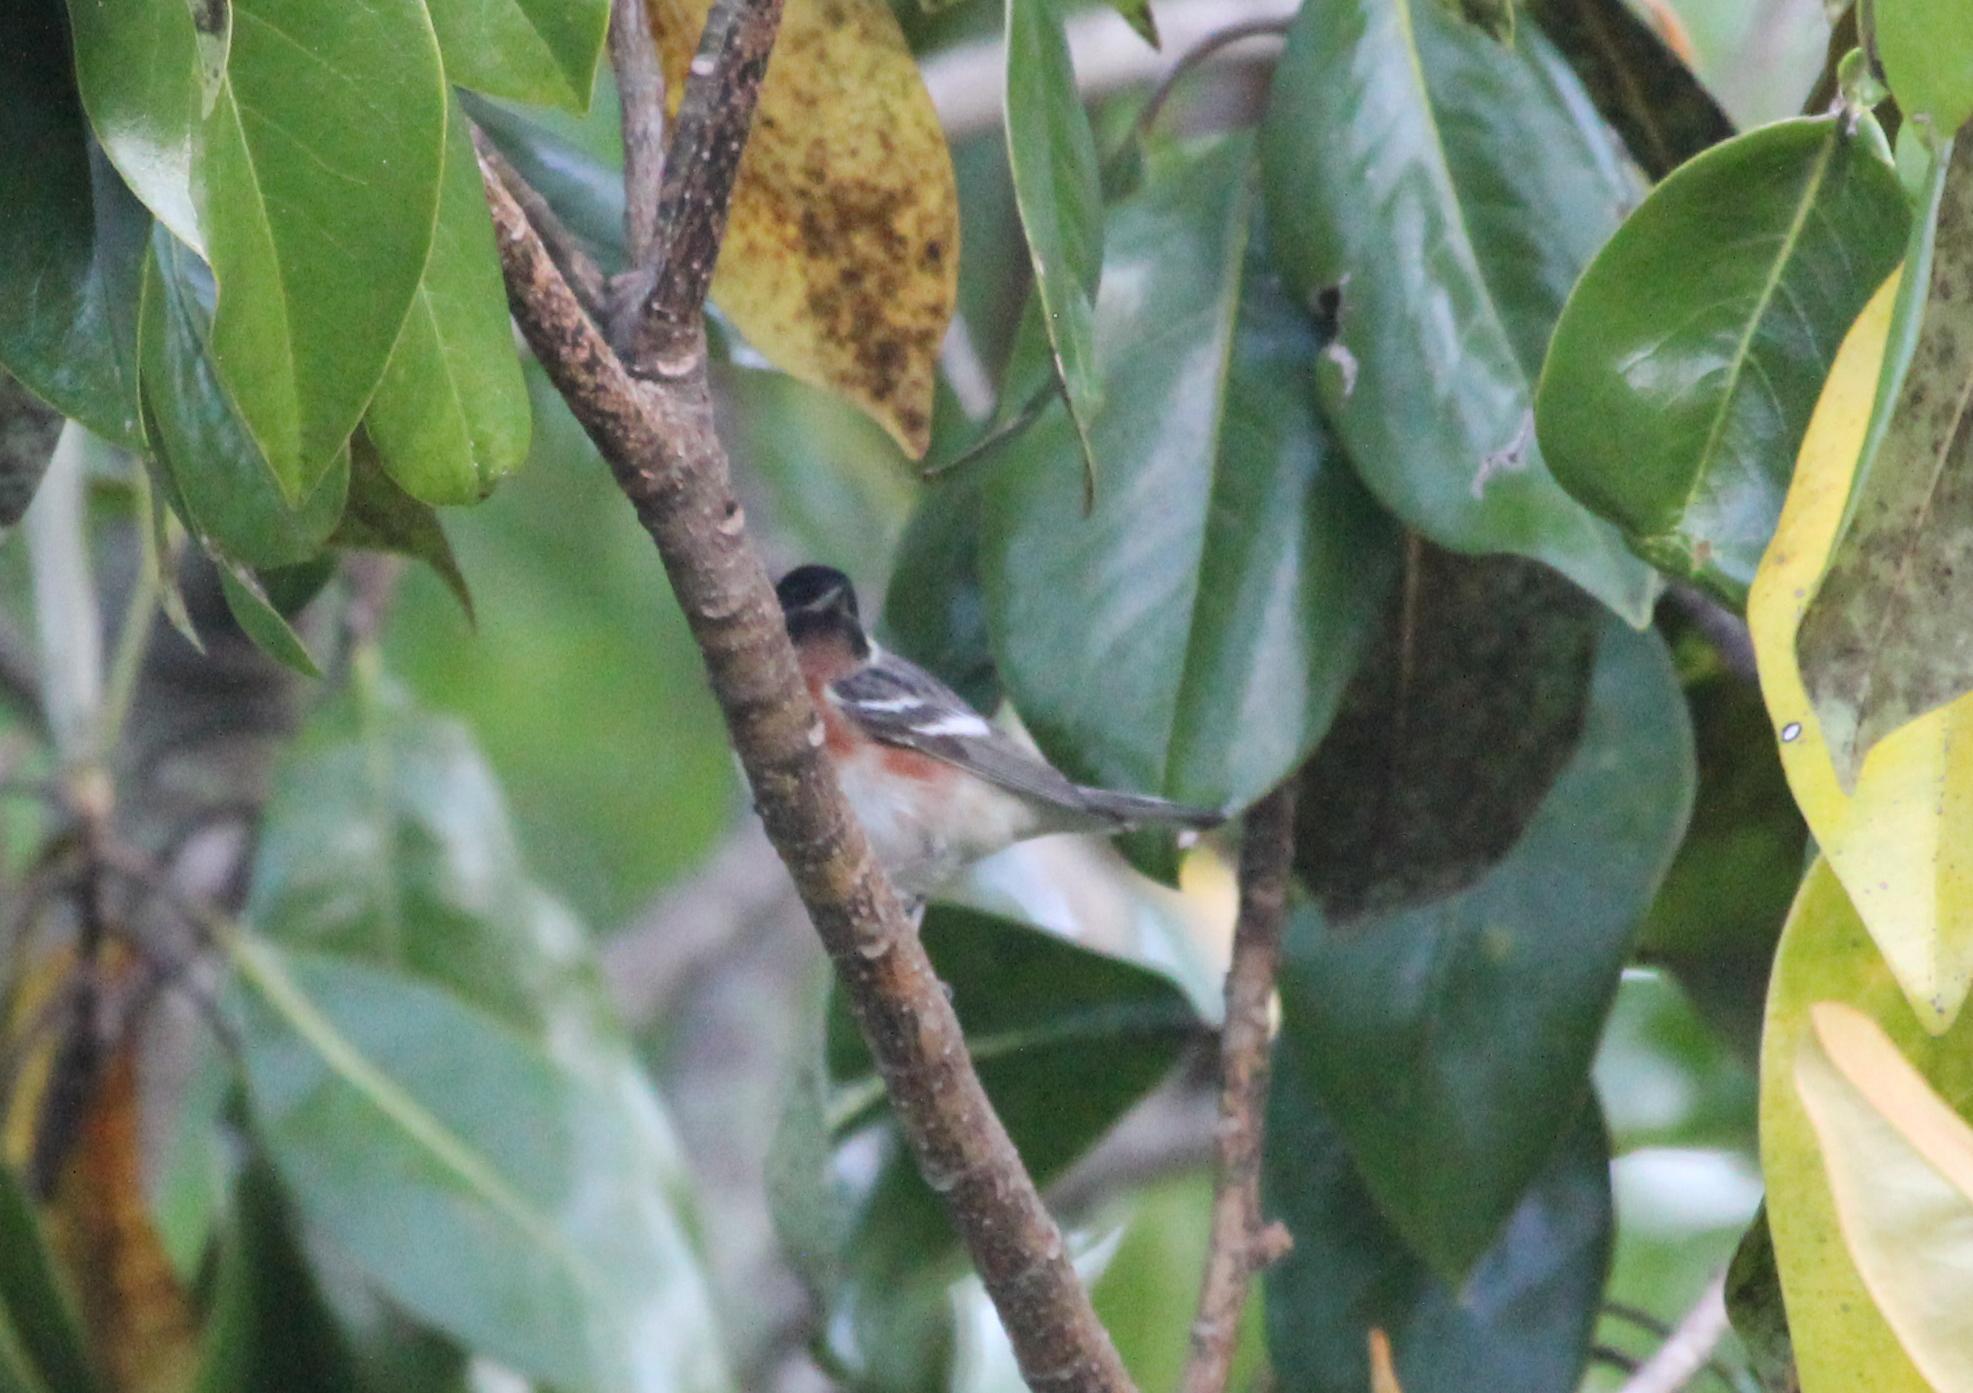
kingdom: Animalia
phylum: Chordata
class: Aves
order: Passeriformes
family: Parulidae
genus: Setophaga
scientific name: Setophaga castanea
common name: Bay-breasted warbler
